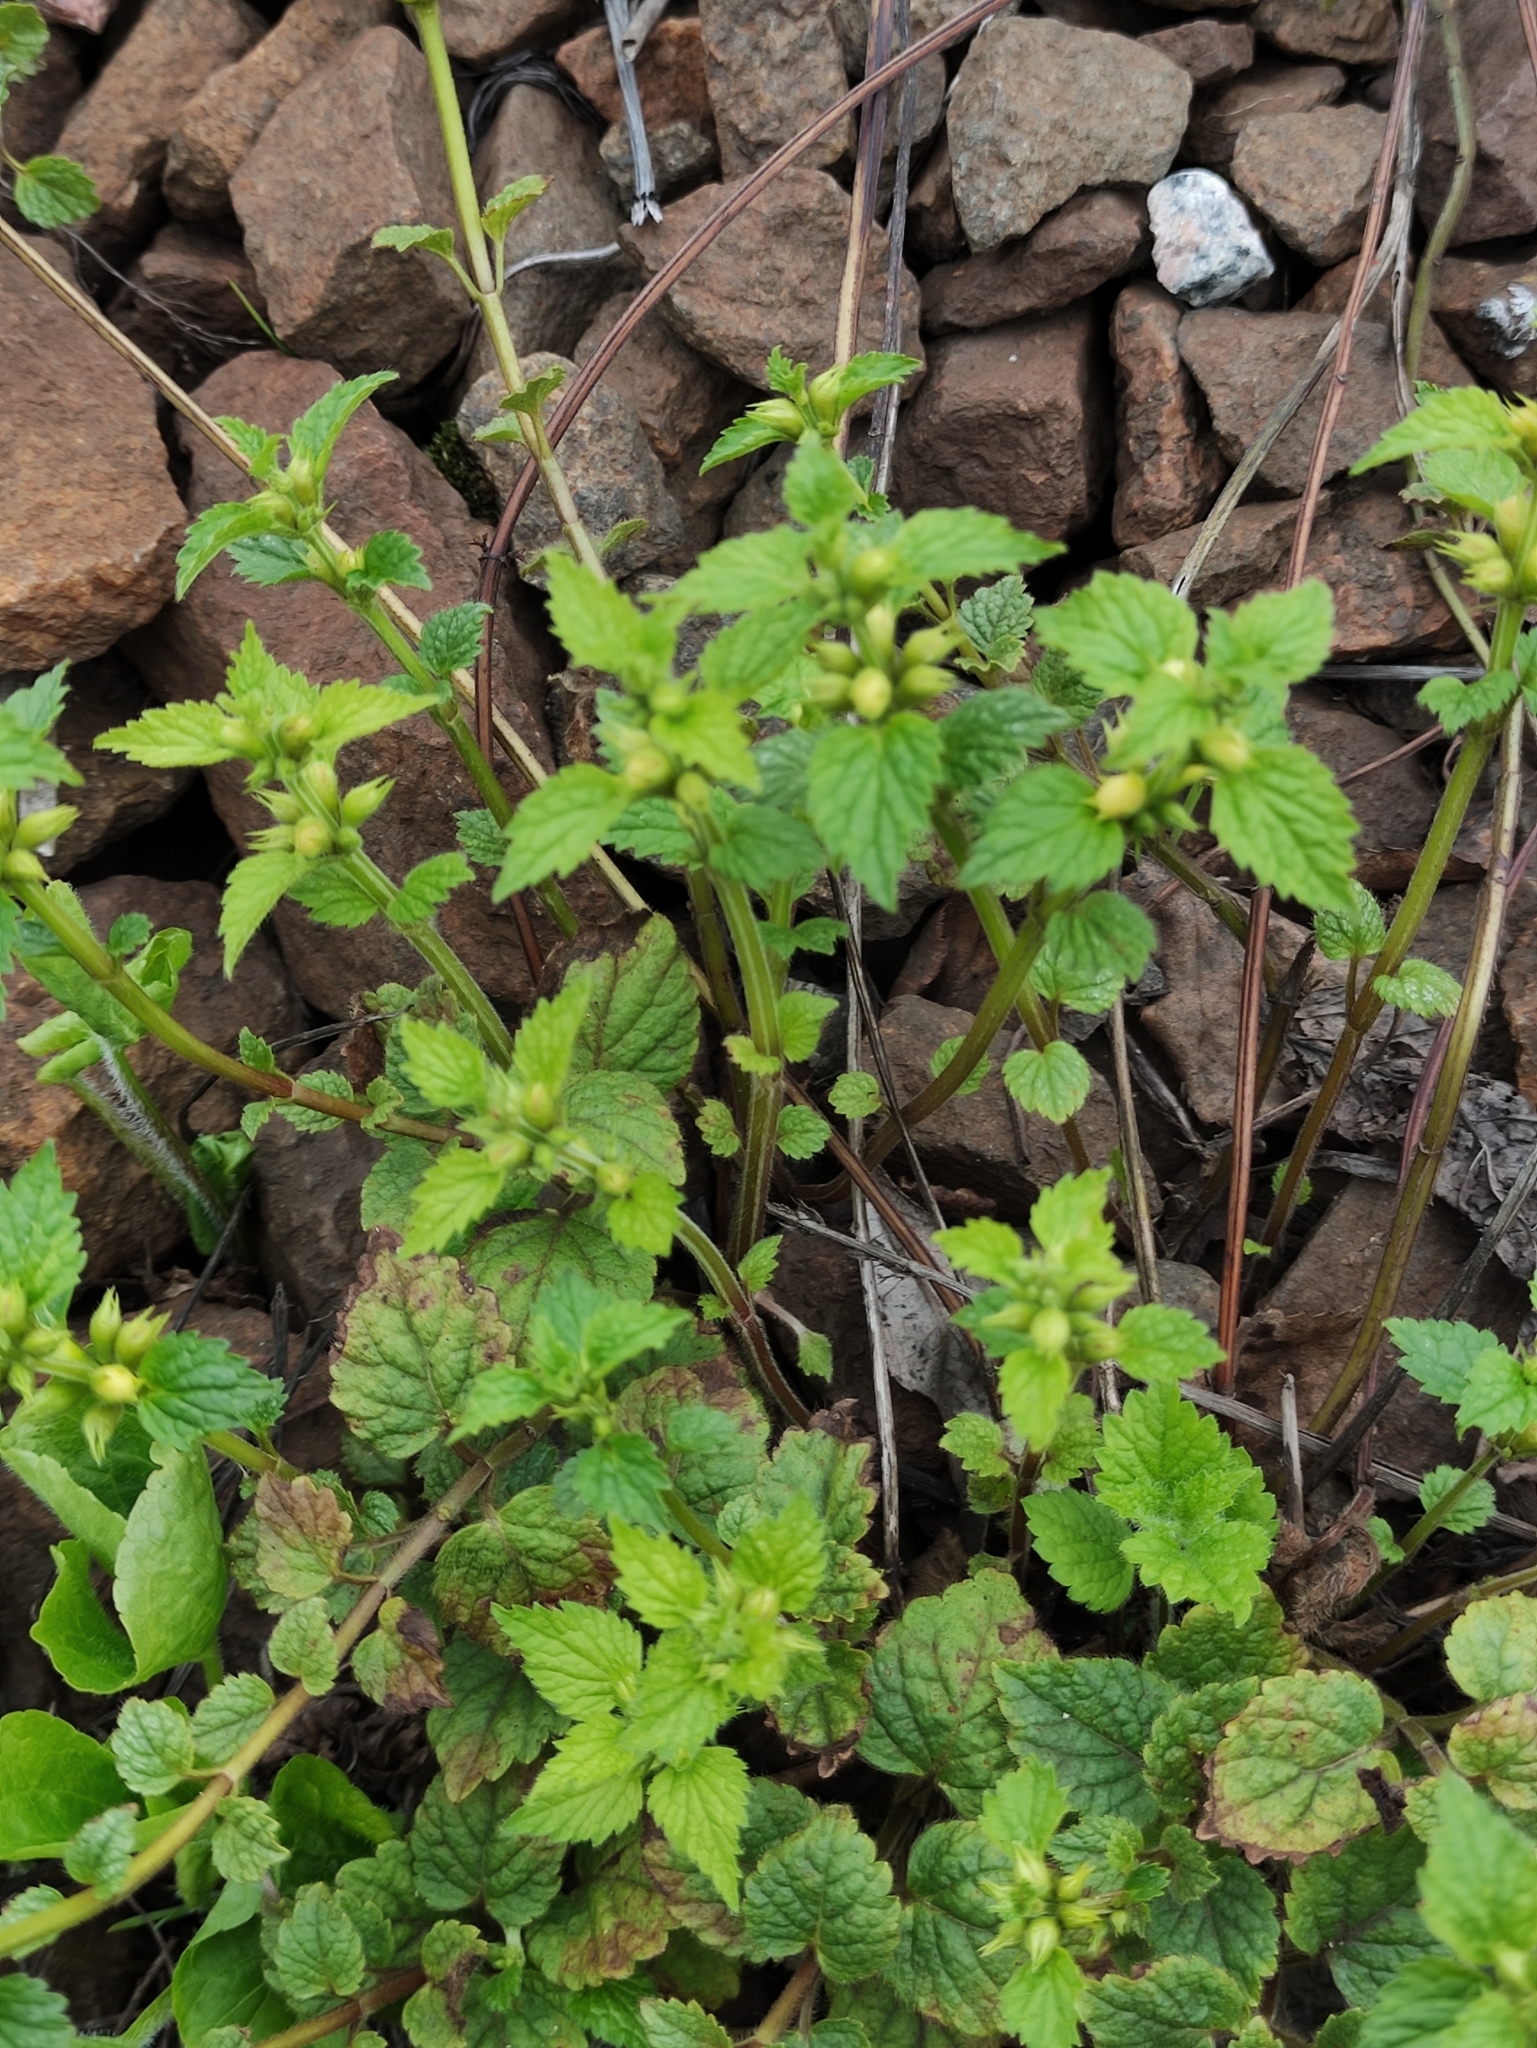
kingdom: Plantae
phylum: Tracheophyta
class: Magnoliopsida
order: Lamiales
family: Lamiaceae
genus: Lamium
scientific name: Lamium galeobdolon
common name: Yellow archangel
